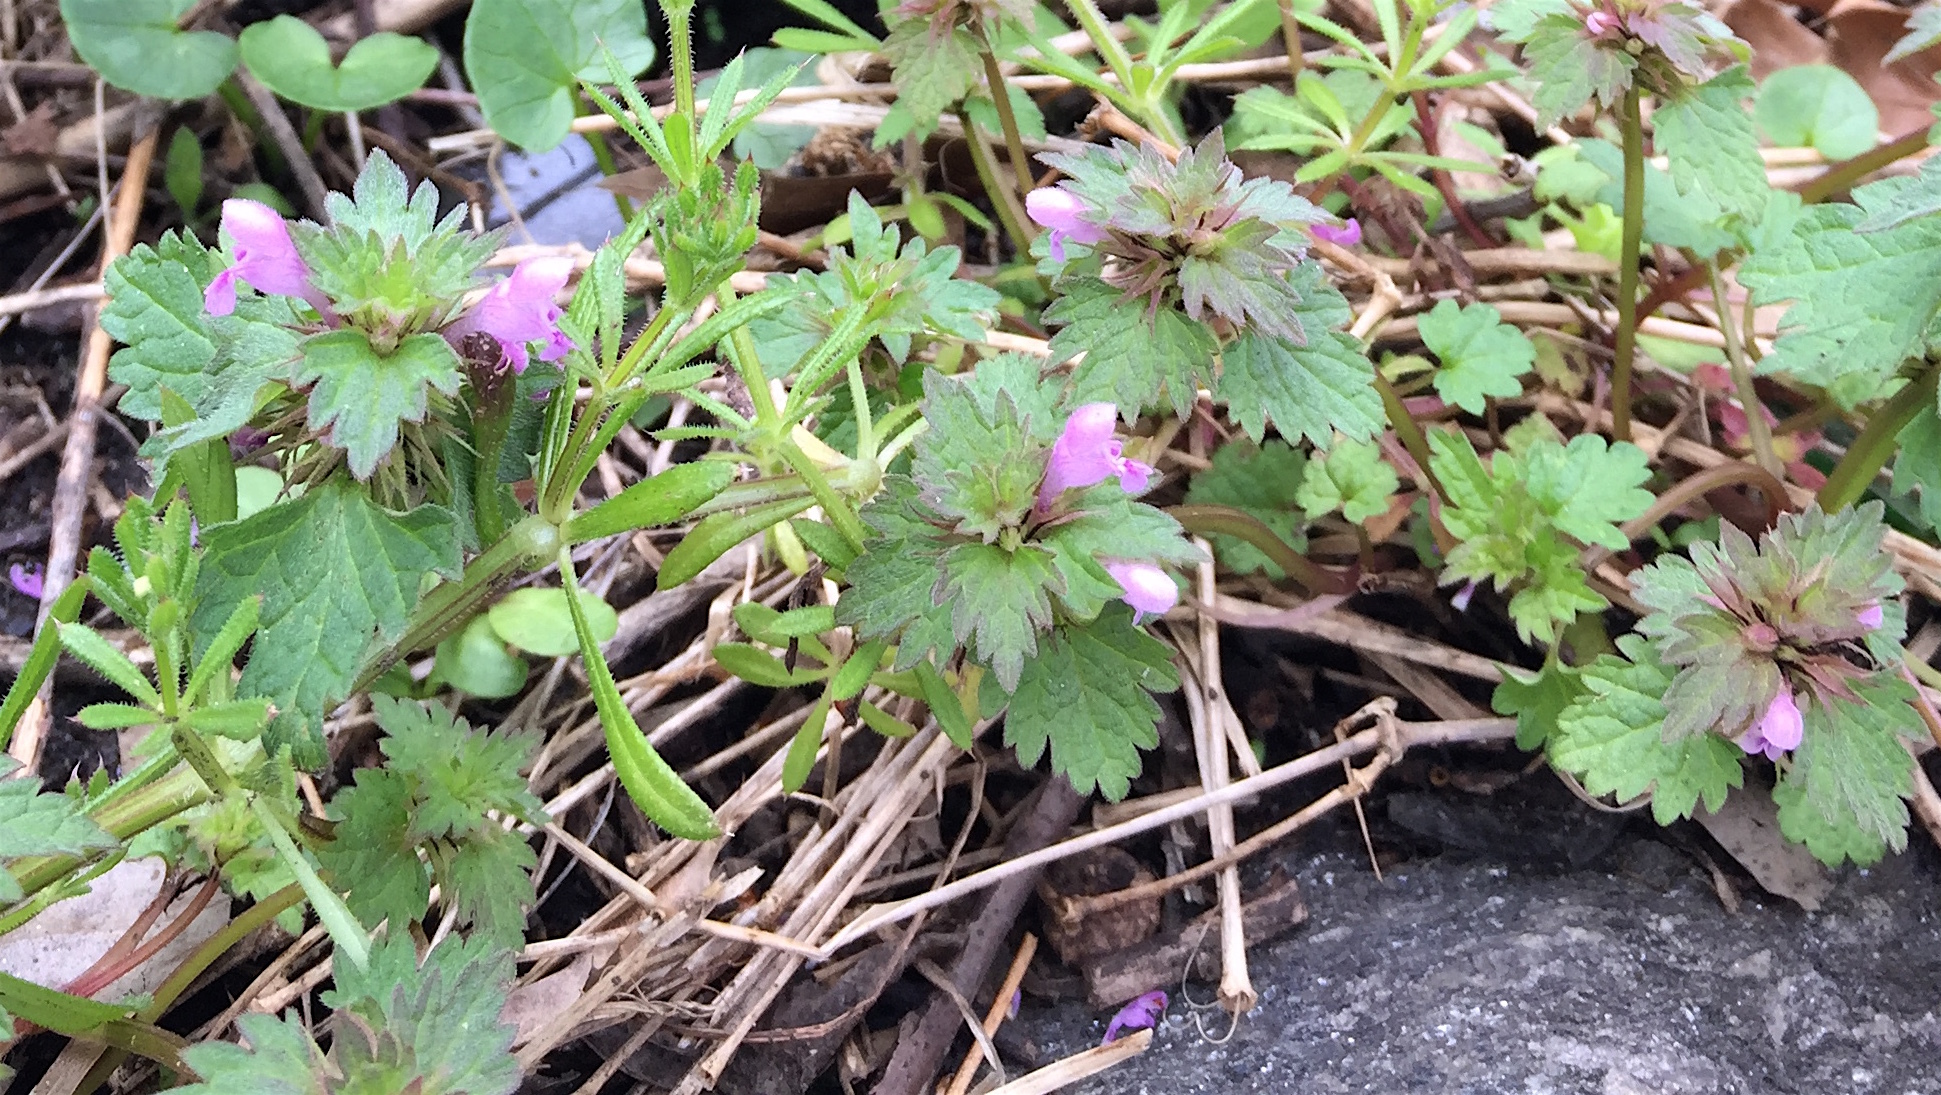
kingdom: Plantae
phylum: Tracheophyta
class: Magnoliopsida
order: Lamiales
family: Lamiaceae
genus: Lamium
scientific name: Lamium hybridum
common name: Cut-leaved dead-nettle
